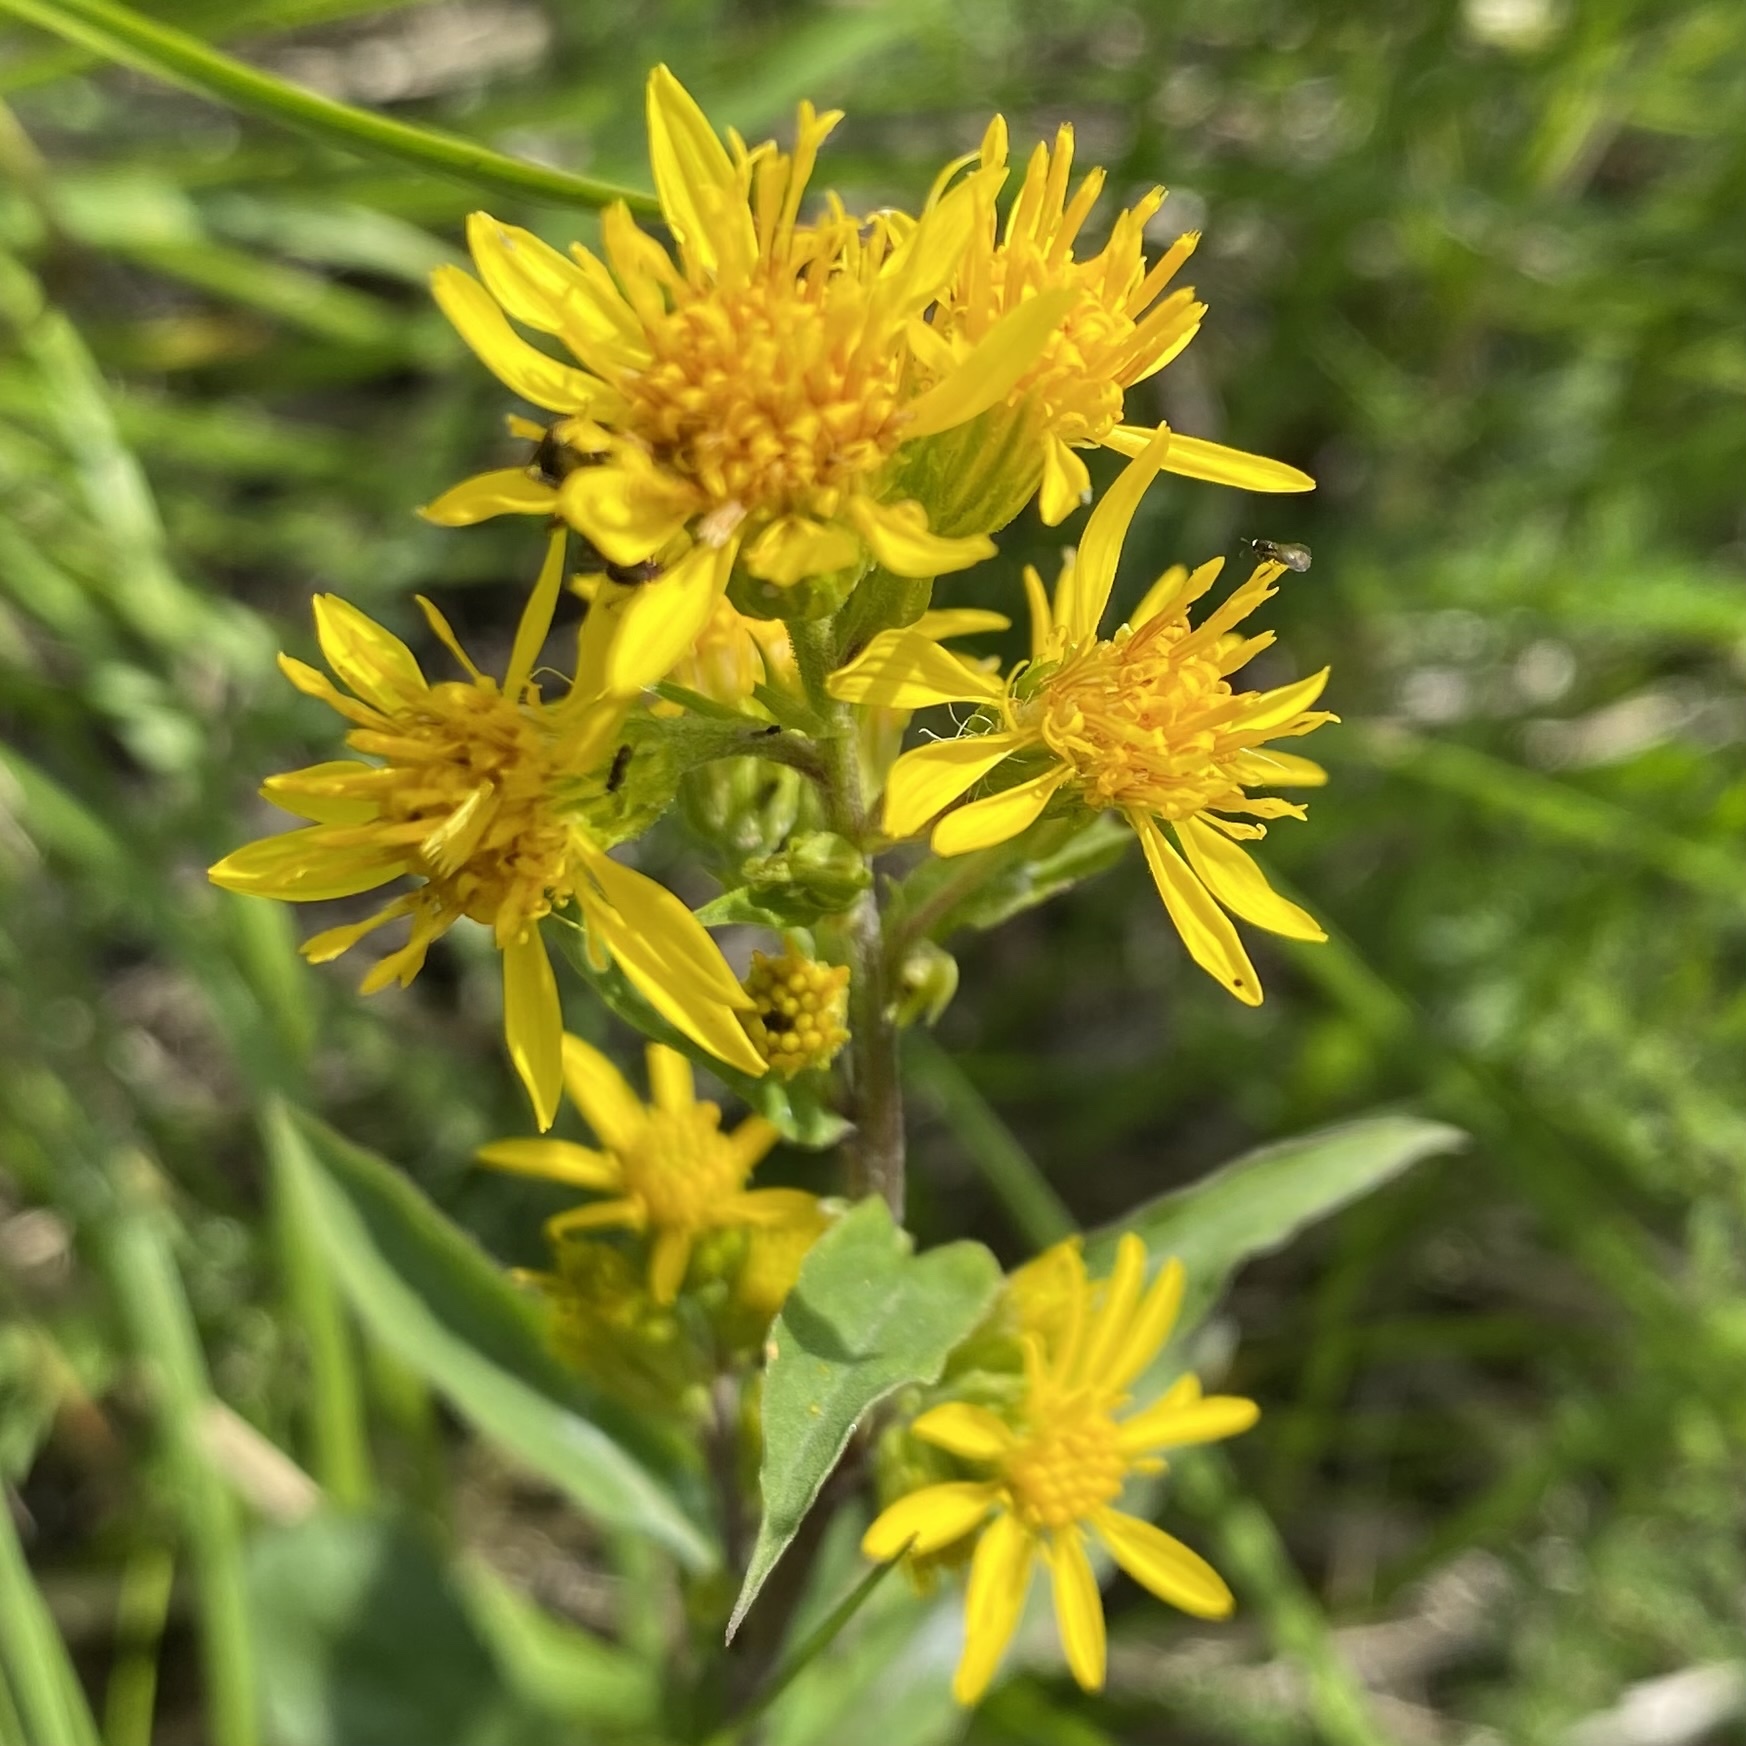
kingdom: Plantae
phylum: Tracheophyta
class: Magnoliopsida
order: Asterales
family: Asteraceae
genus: Solidago
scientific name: Solidago virgaurea
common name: Goldenrod
